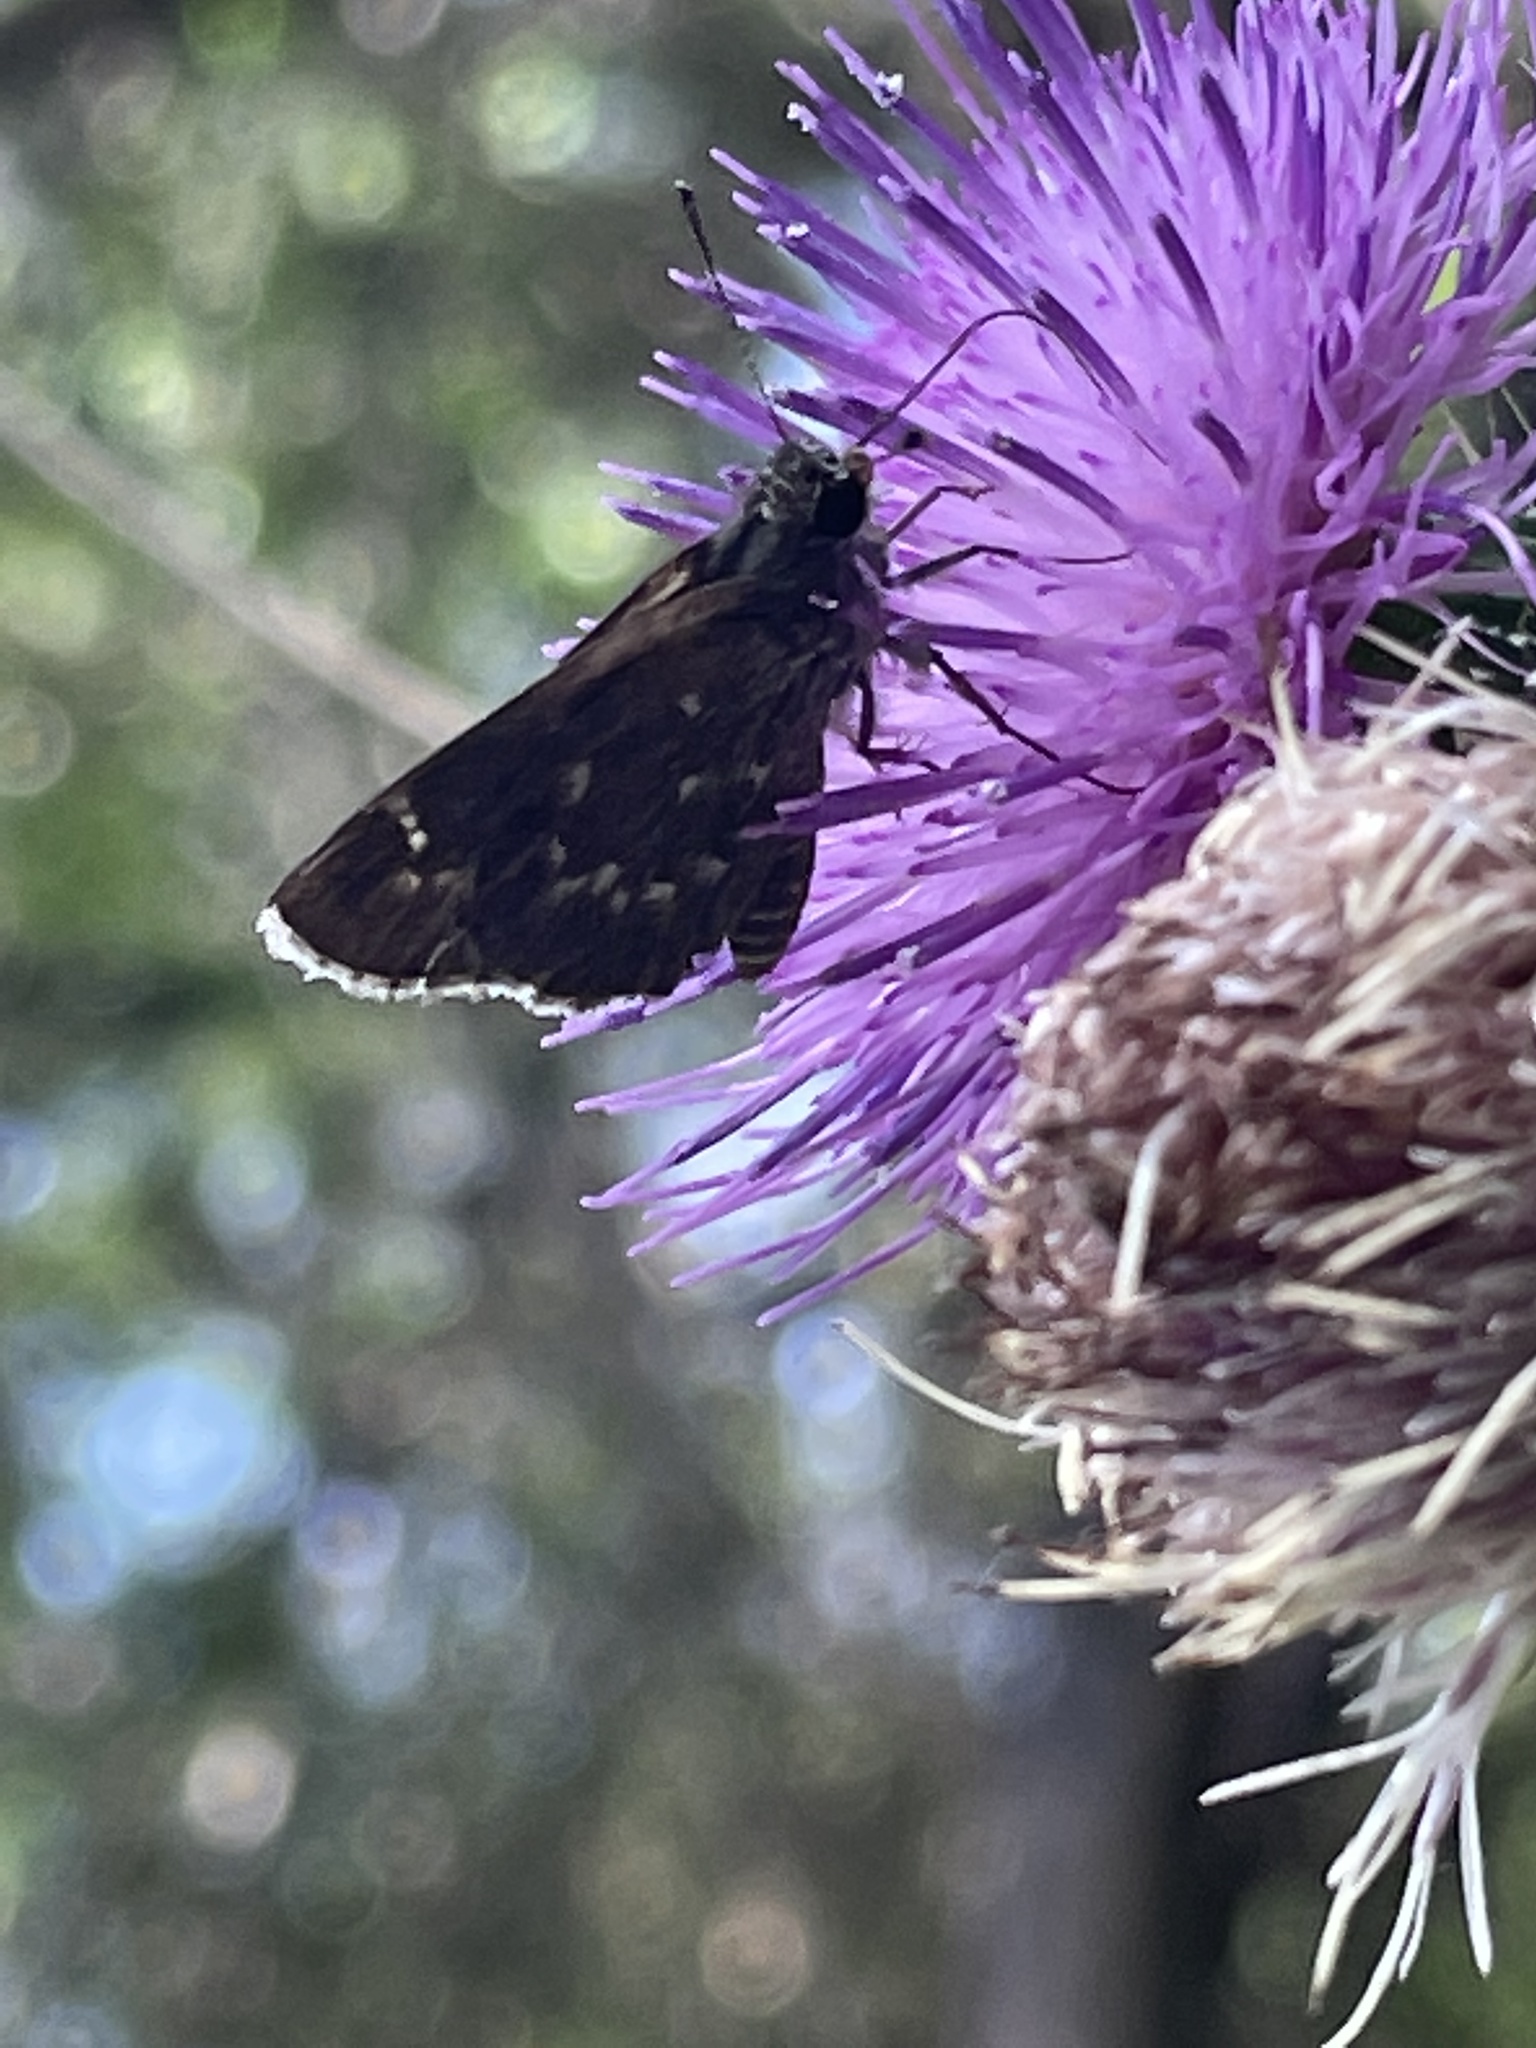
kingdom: Animalia
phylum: Arthropoda
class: Insecta
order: Lepidoptera
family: Hesperiidae
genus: Mastor
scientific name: Mastor celia
